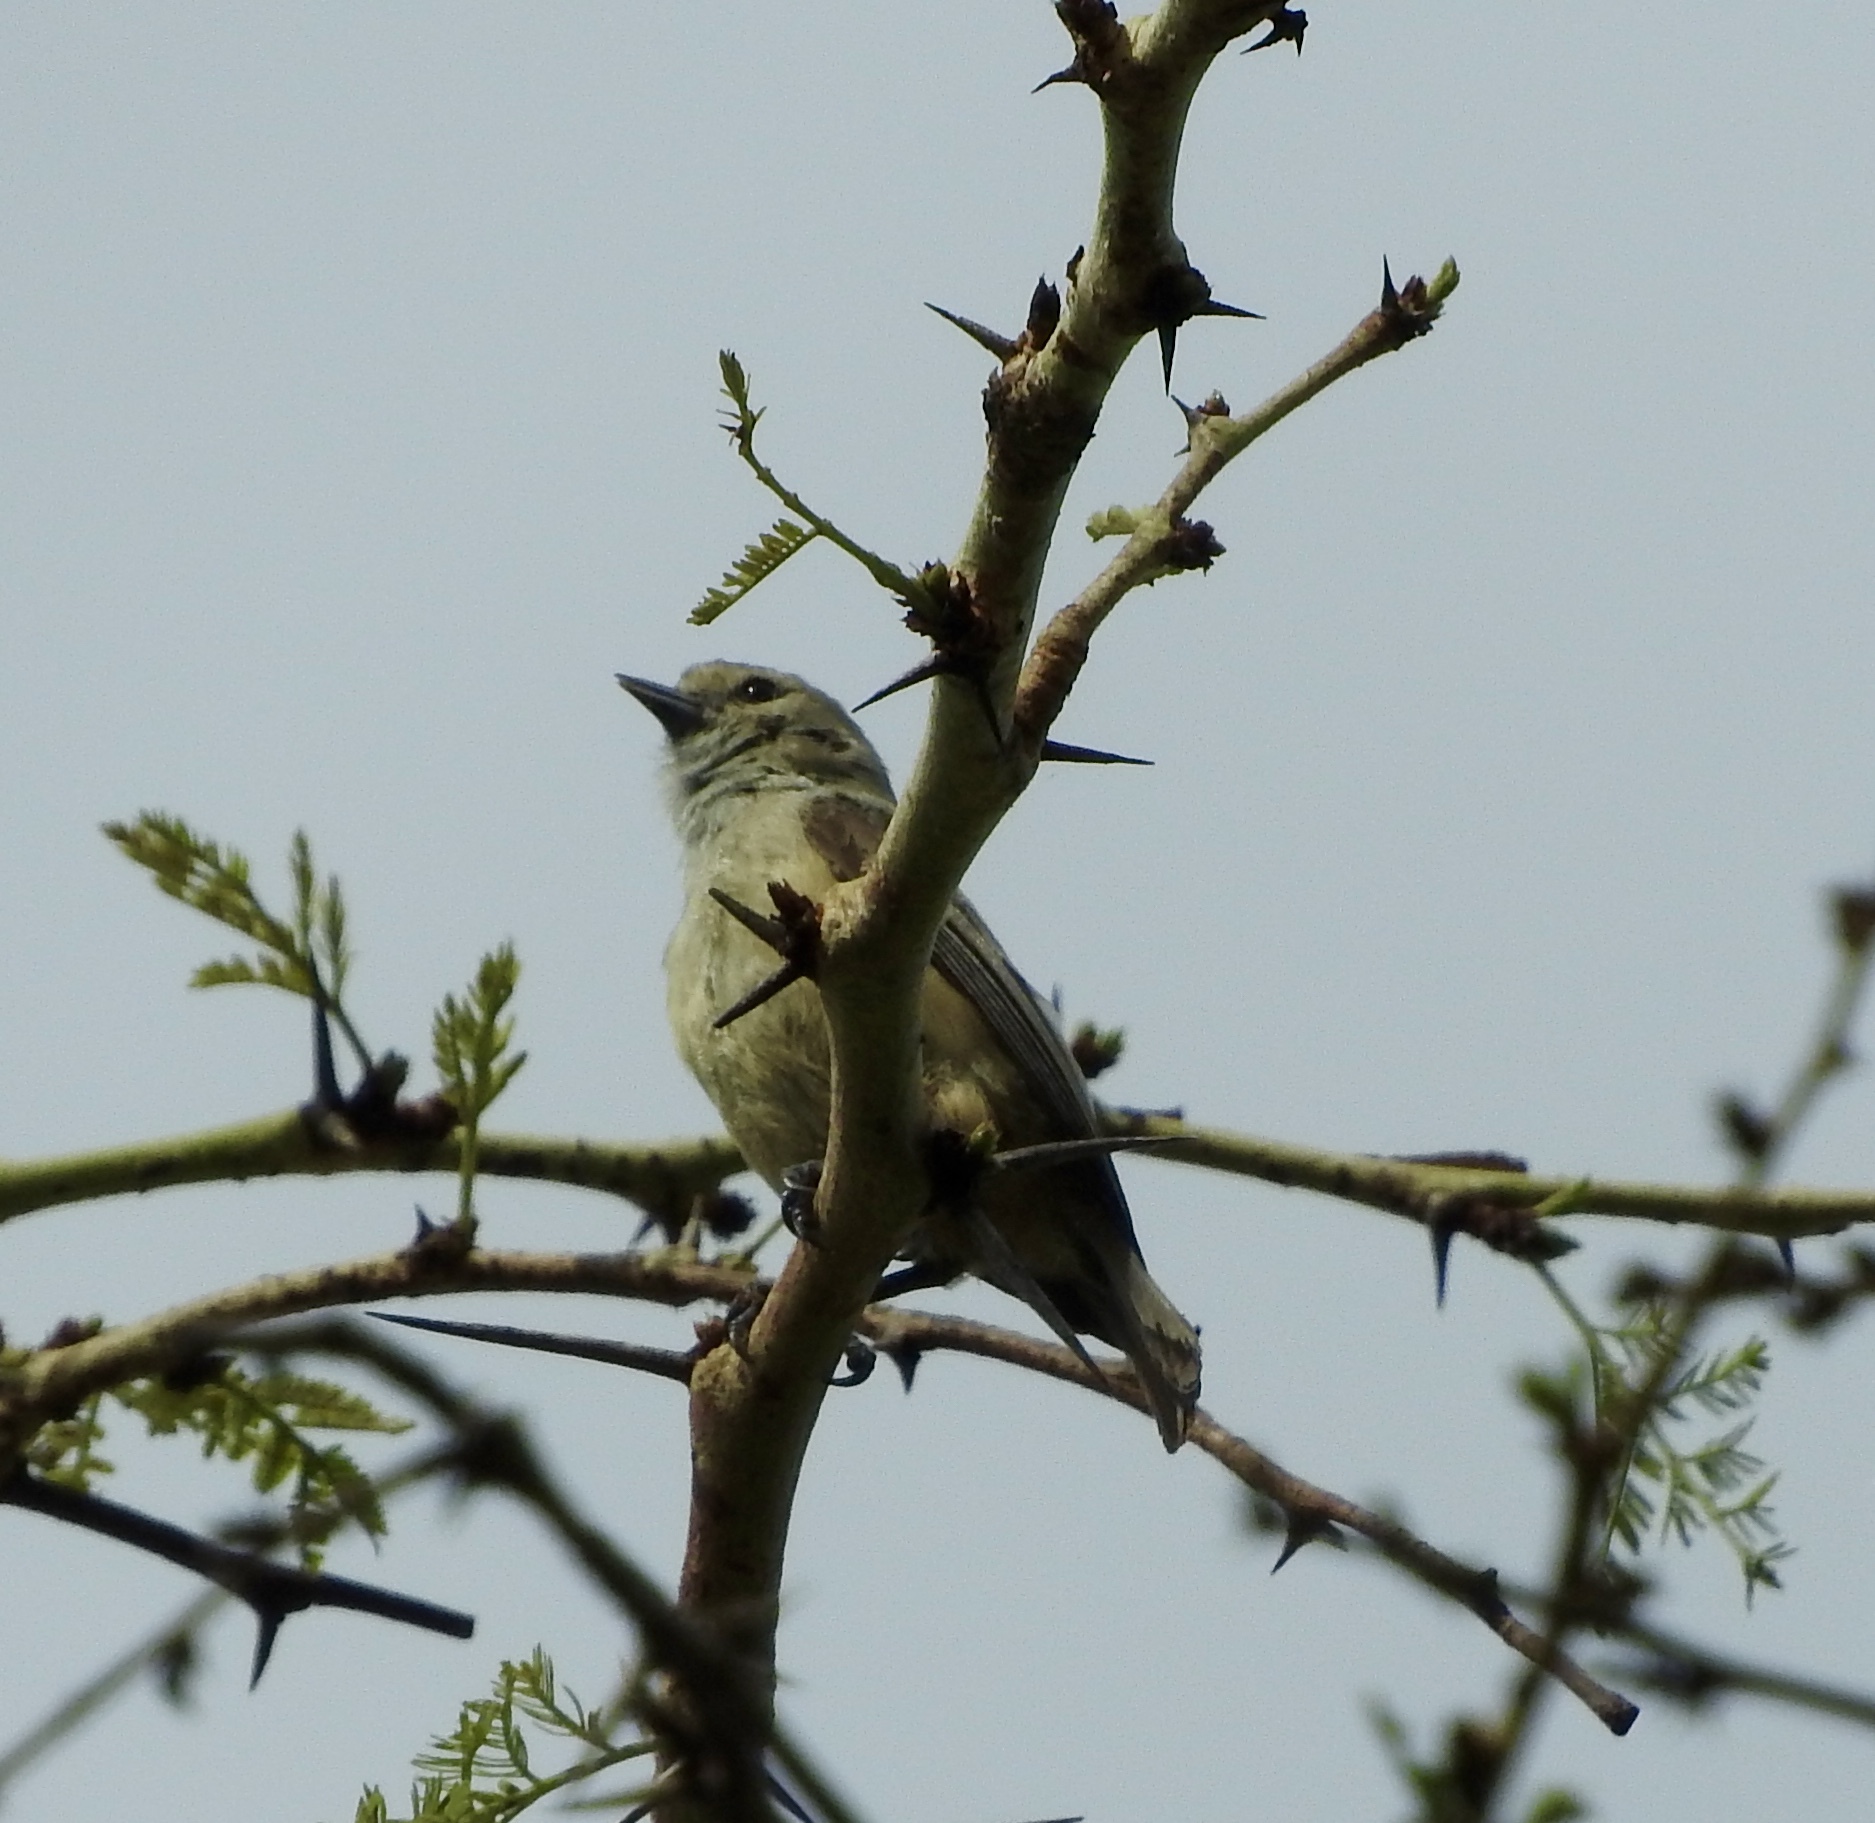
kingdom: Animalia
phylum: Chordata
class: Aves
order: Passeriformes
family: Remizidae
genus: Anthoscopus
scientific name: Anthoscopus caroli
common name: Grey penduline tit
